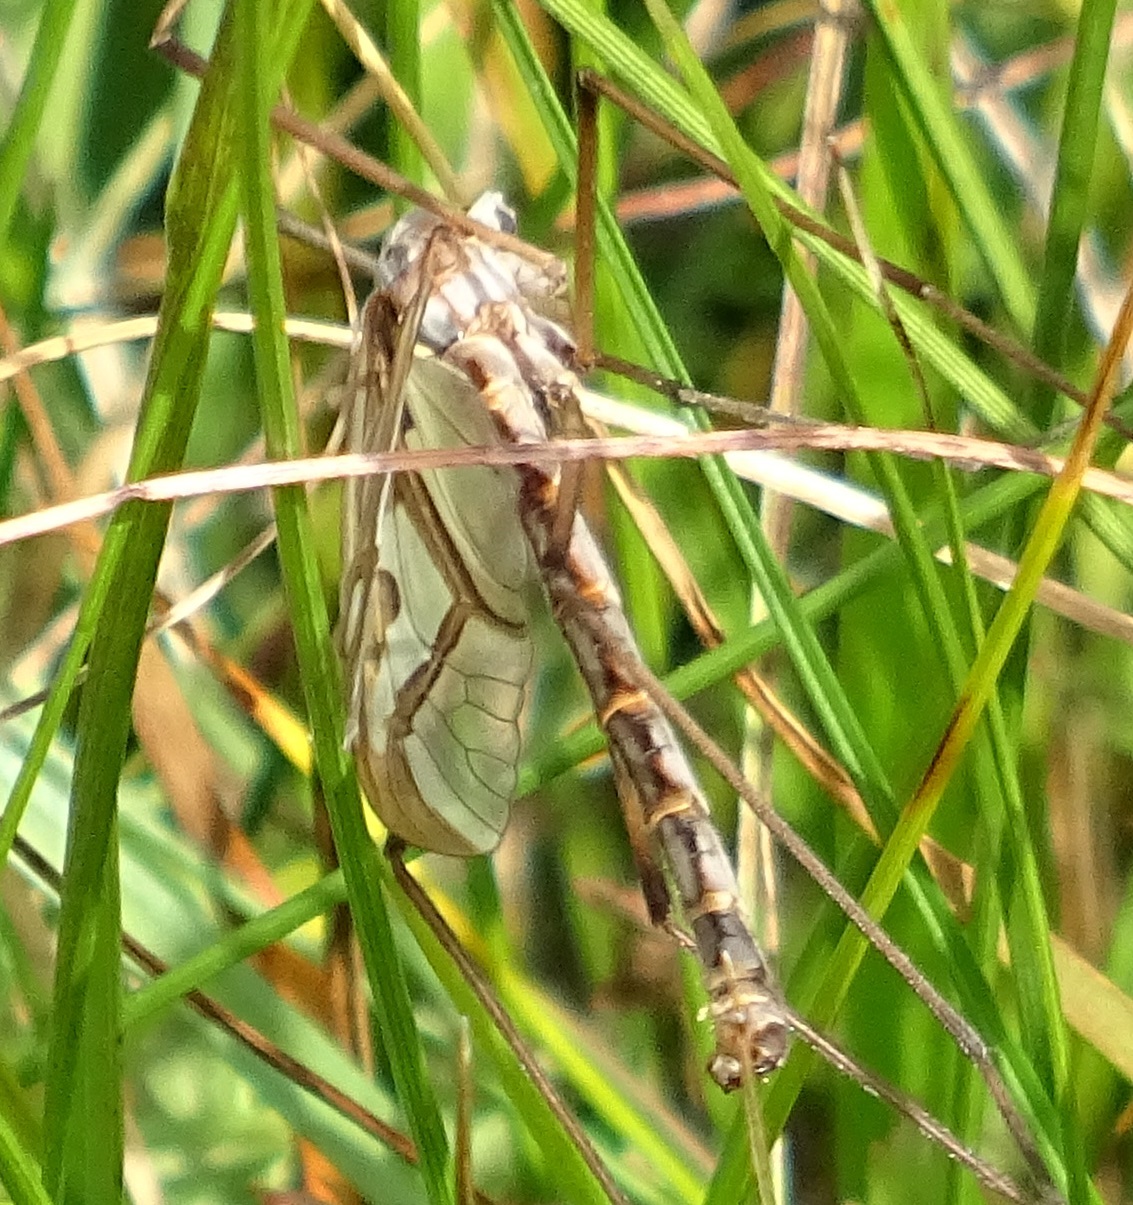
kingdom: Animalia
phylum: Arthropoda
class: Insecta
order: Diptera
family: Pediciidae
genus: Pedicia
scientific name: Pedicia rivosa
